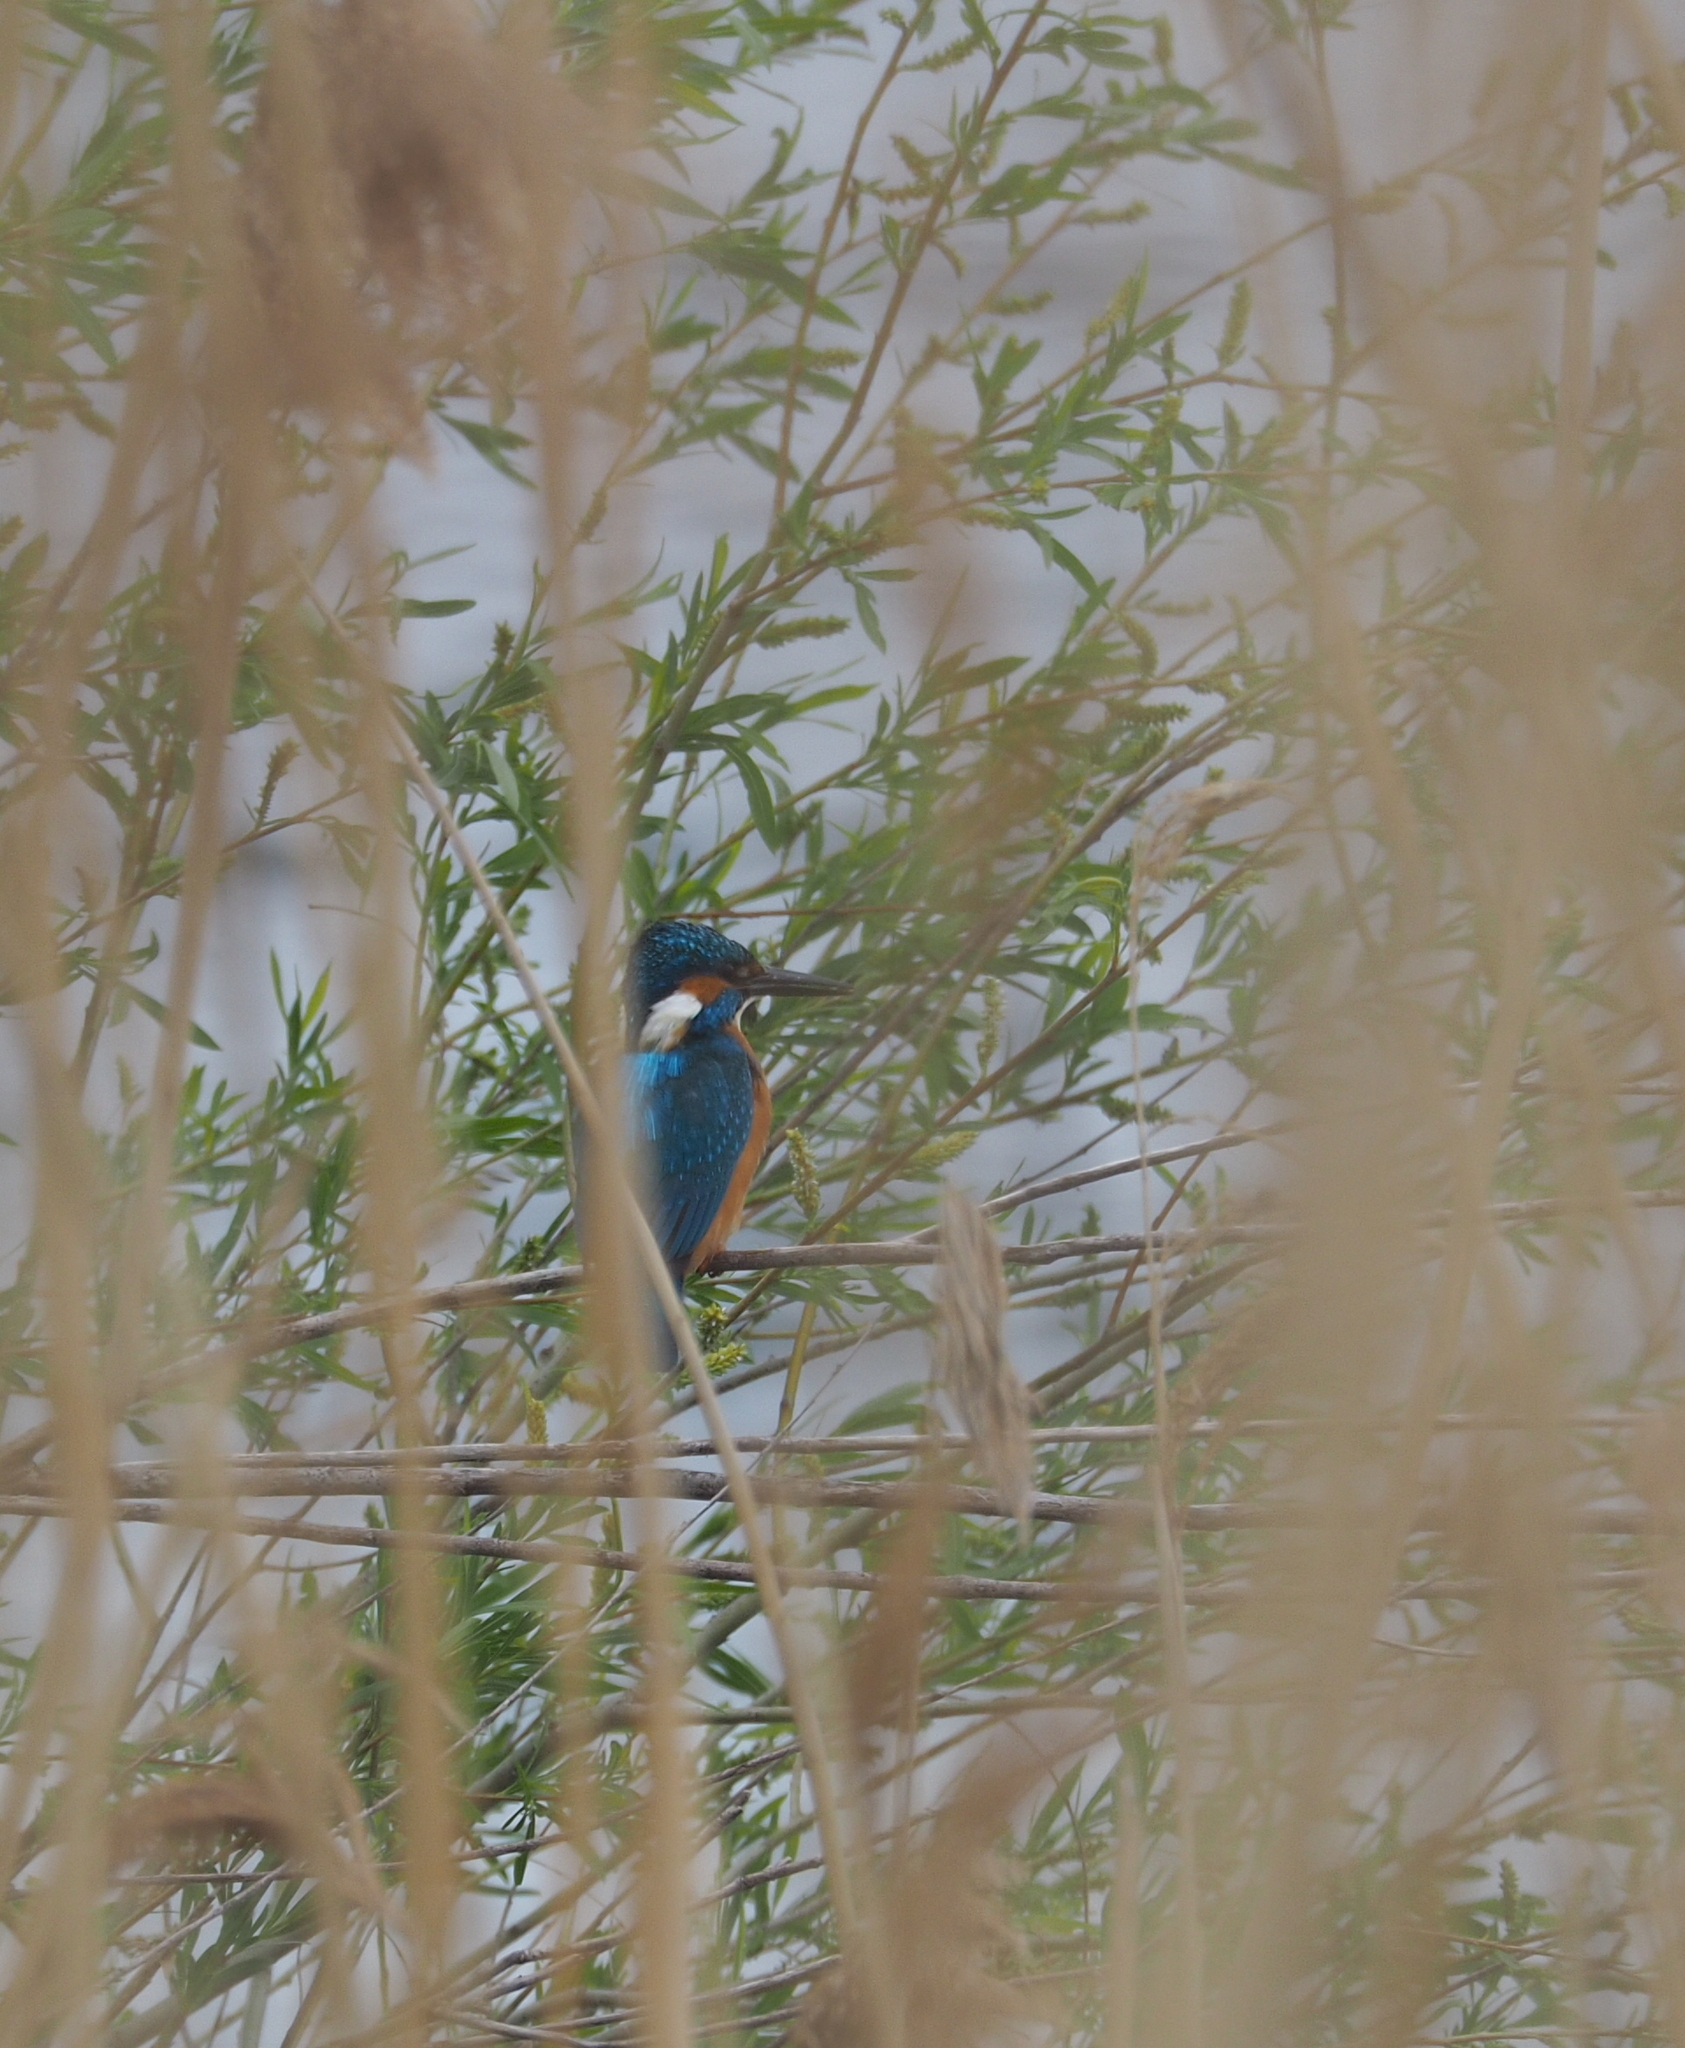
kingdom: Animalia
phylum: Chordata
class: Aves
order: Coraciiformes
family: Alcedinidae
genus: Alcedo
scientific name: Alcedo atthis
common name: Common kingfisher
